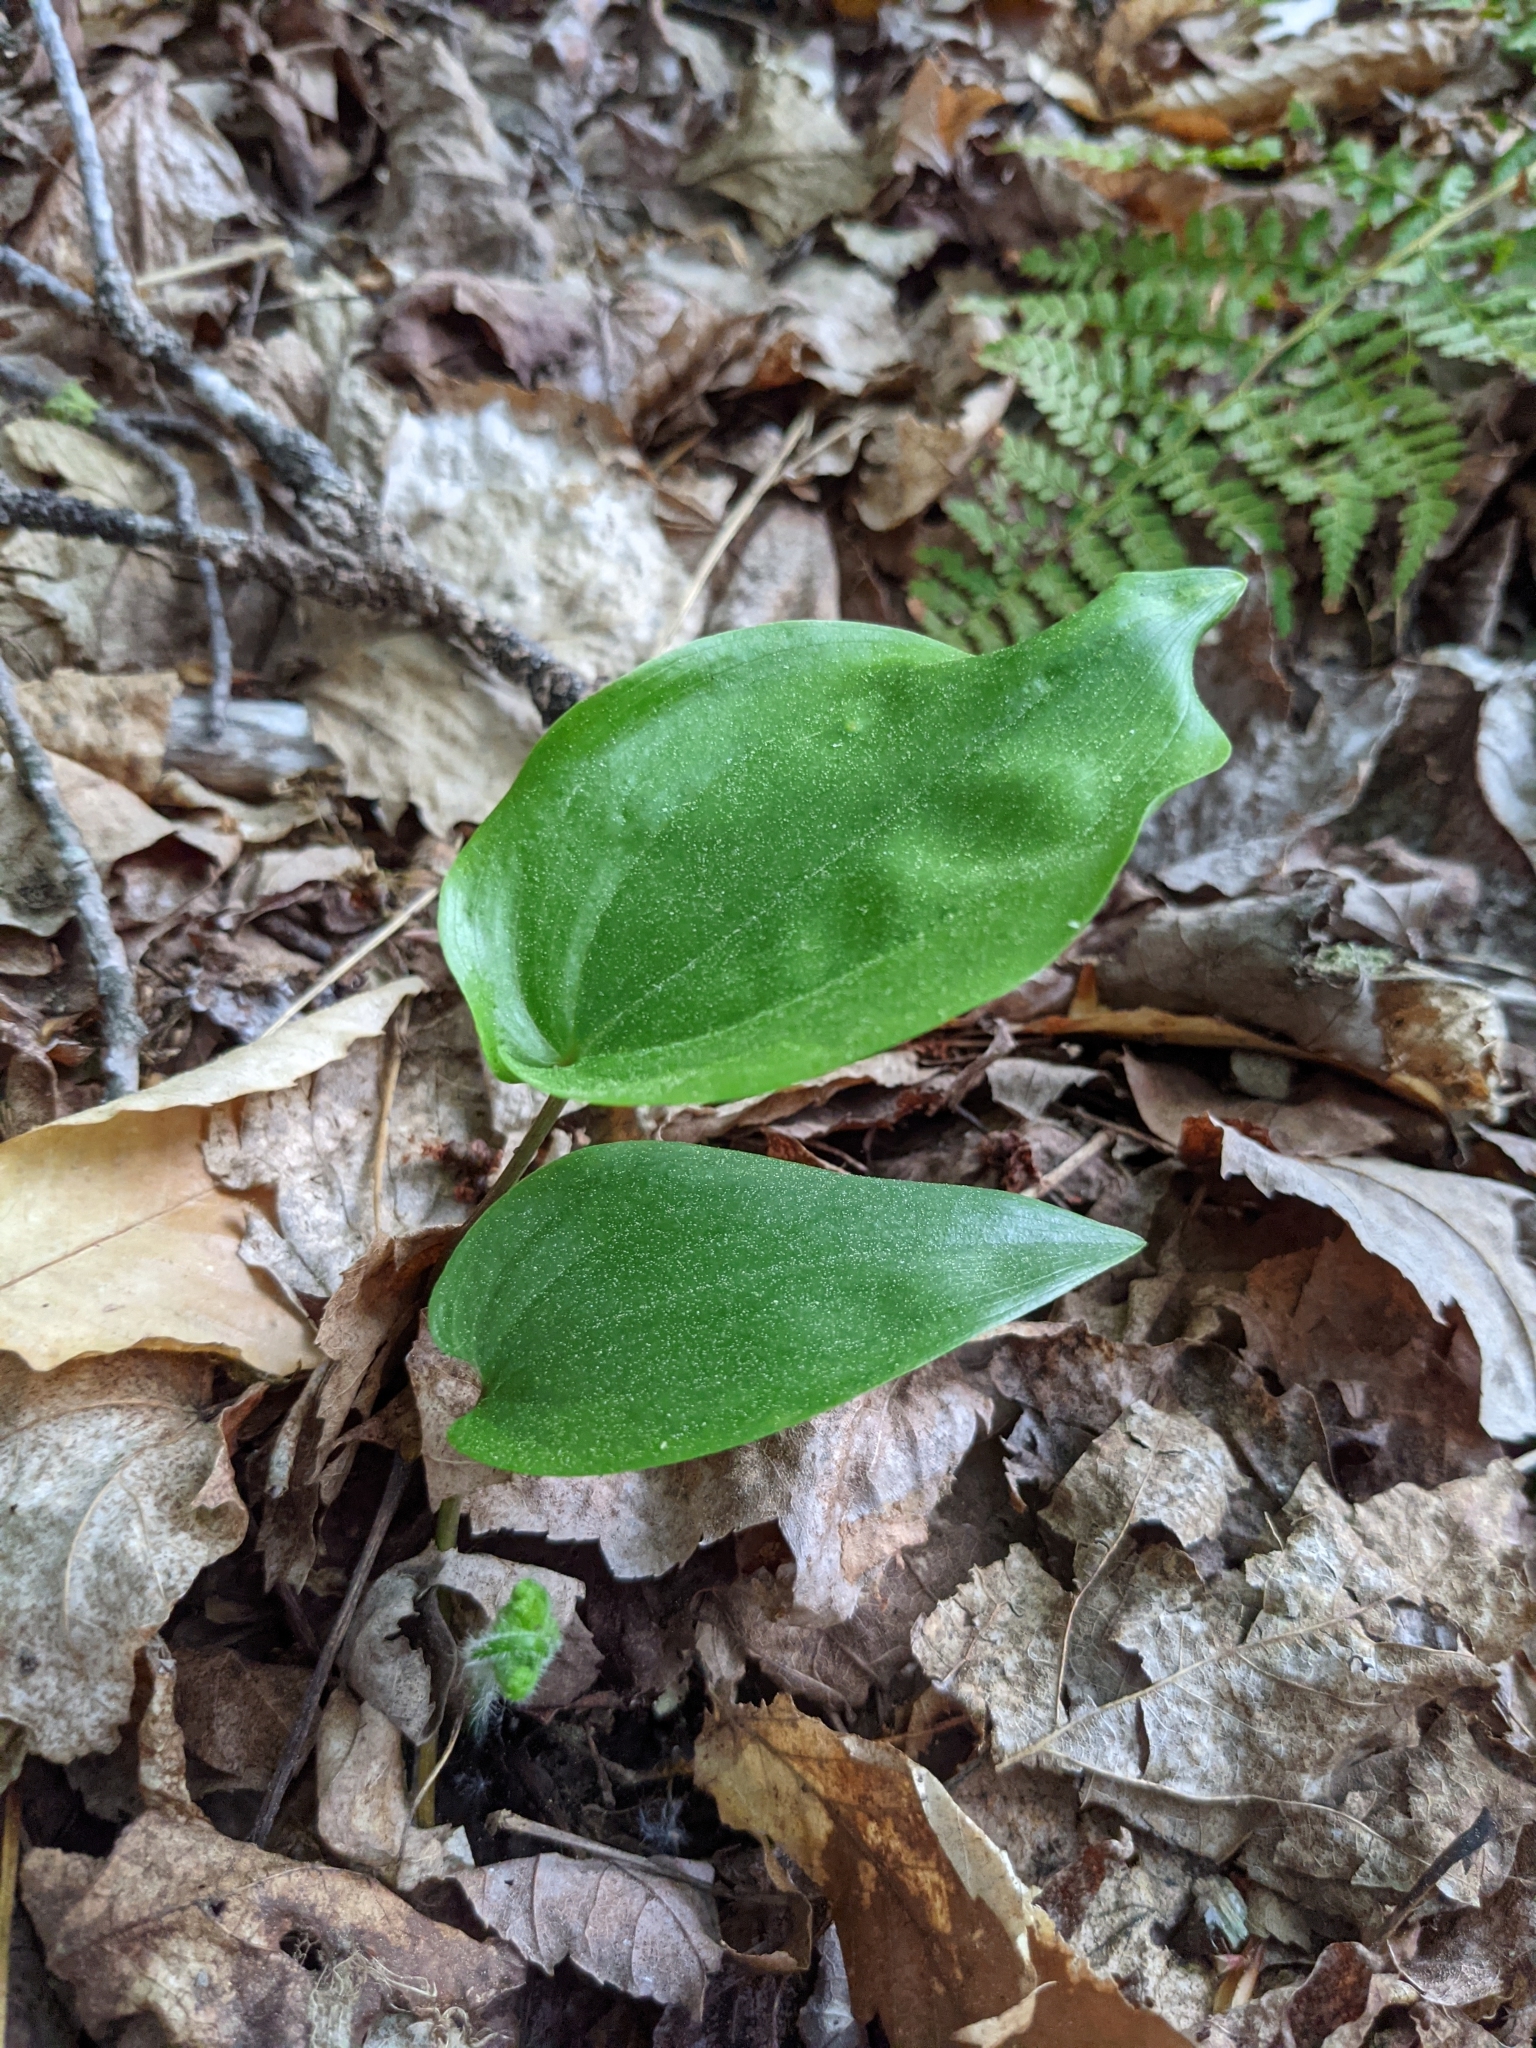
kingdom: Plantae
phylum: Tracheophyta
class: Liliopsida
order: Asparagales
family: Asparagaceae
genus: Maianthemum
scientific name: Maianthemum canadense
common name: False lily-of-the-valley
